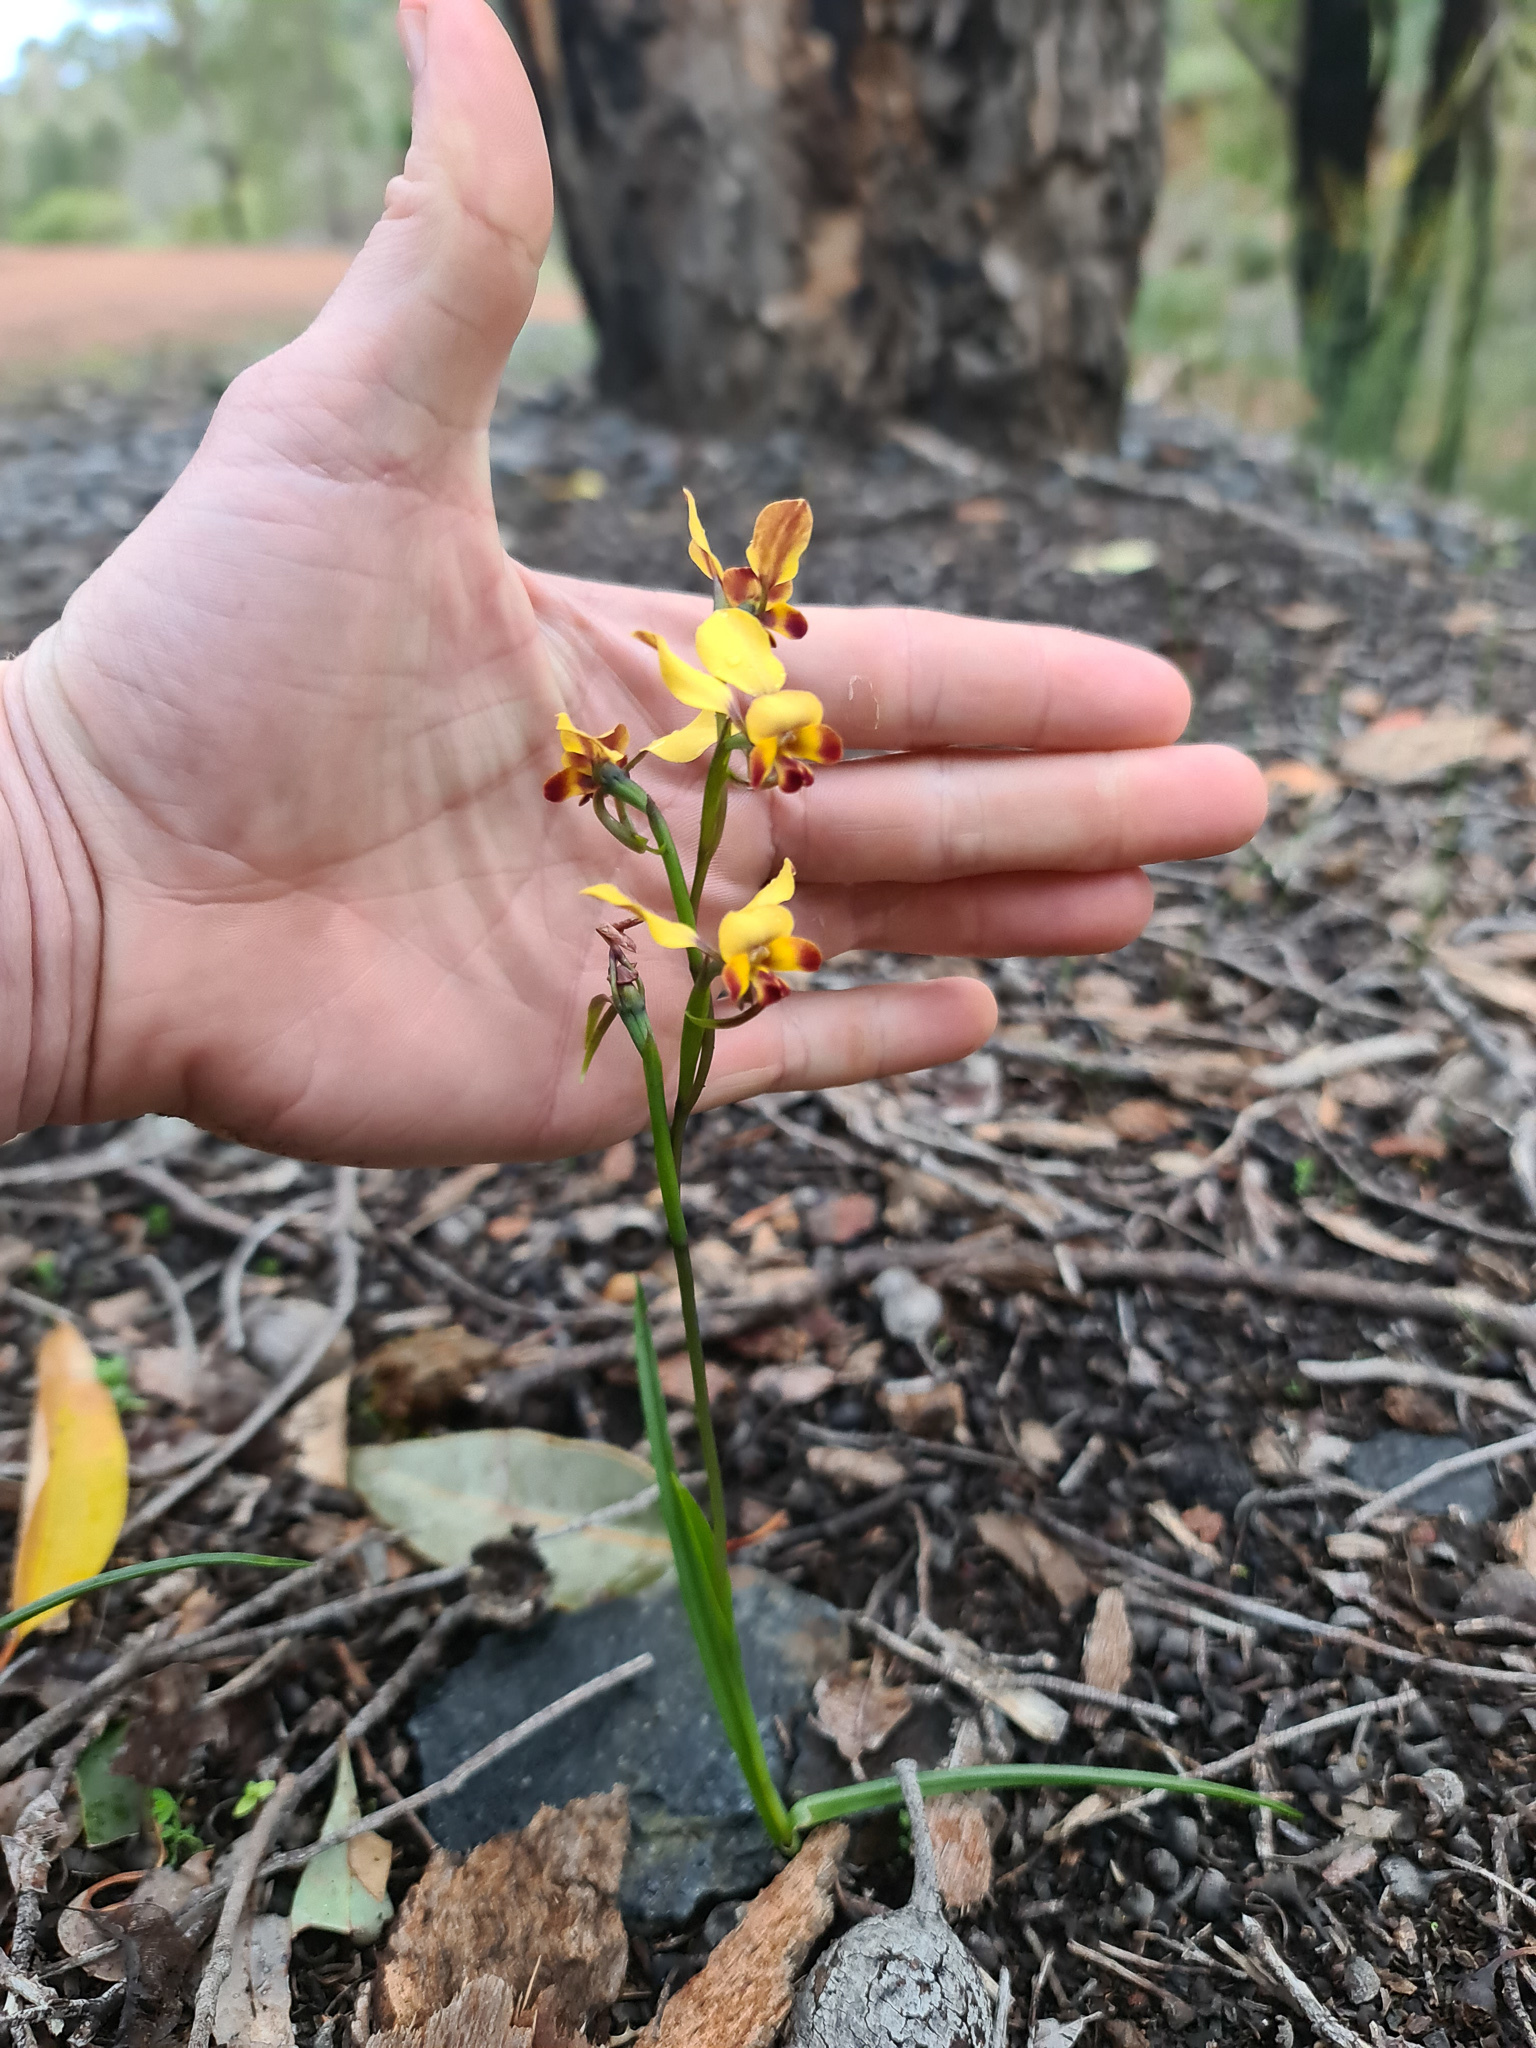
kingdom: Plantae
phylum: Tracheophyta
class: Liliopsida
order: Asparagales
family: Orchidaceae
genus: Diuris
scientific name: Diuris porrifolia
